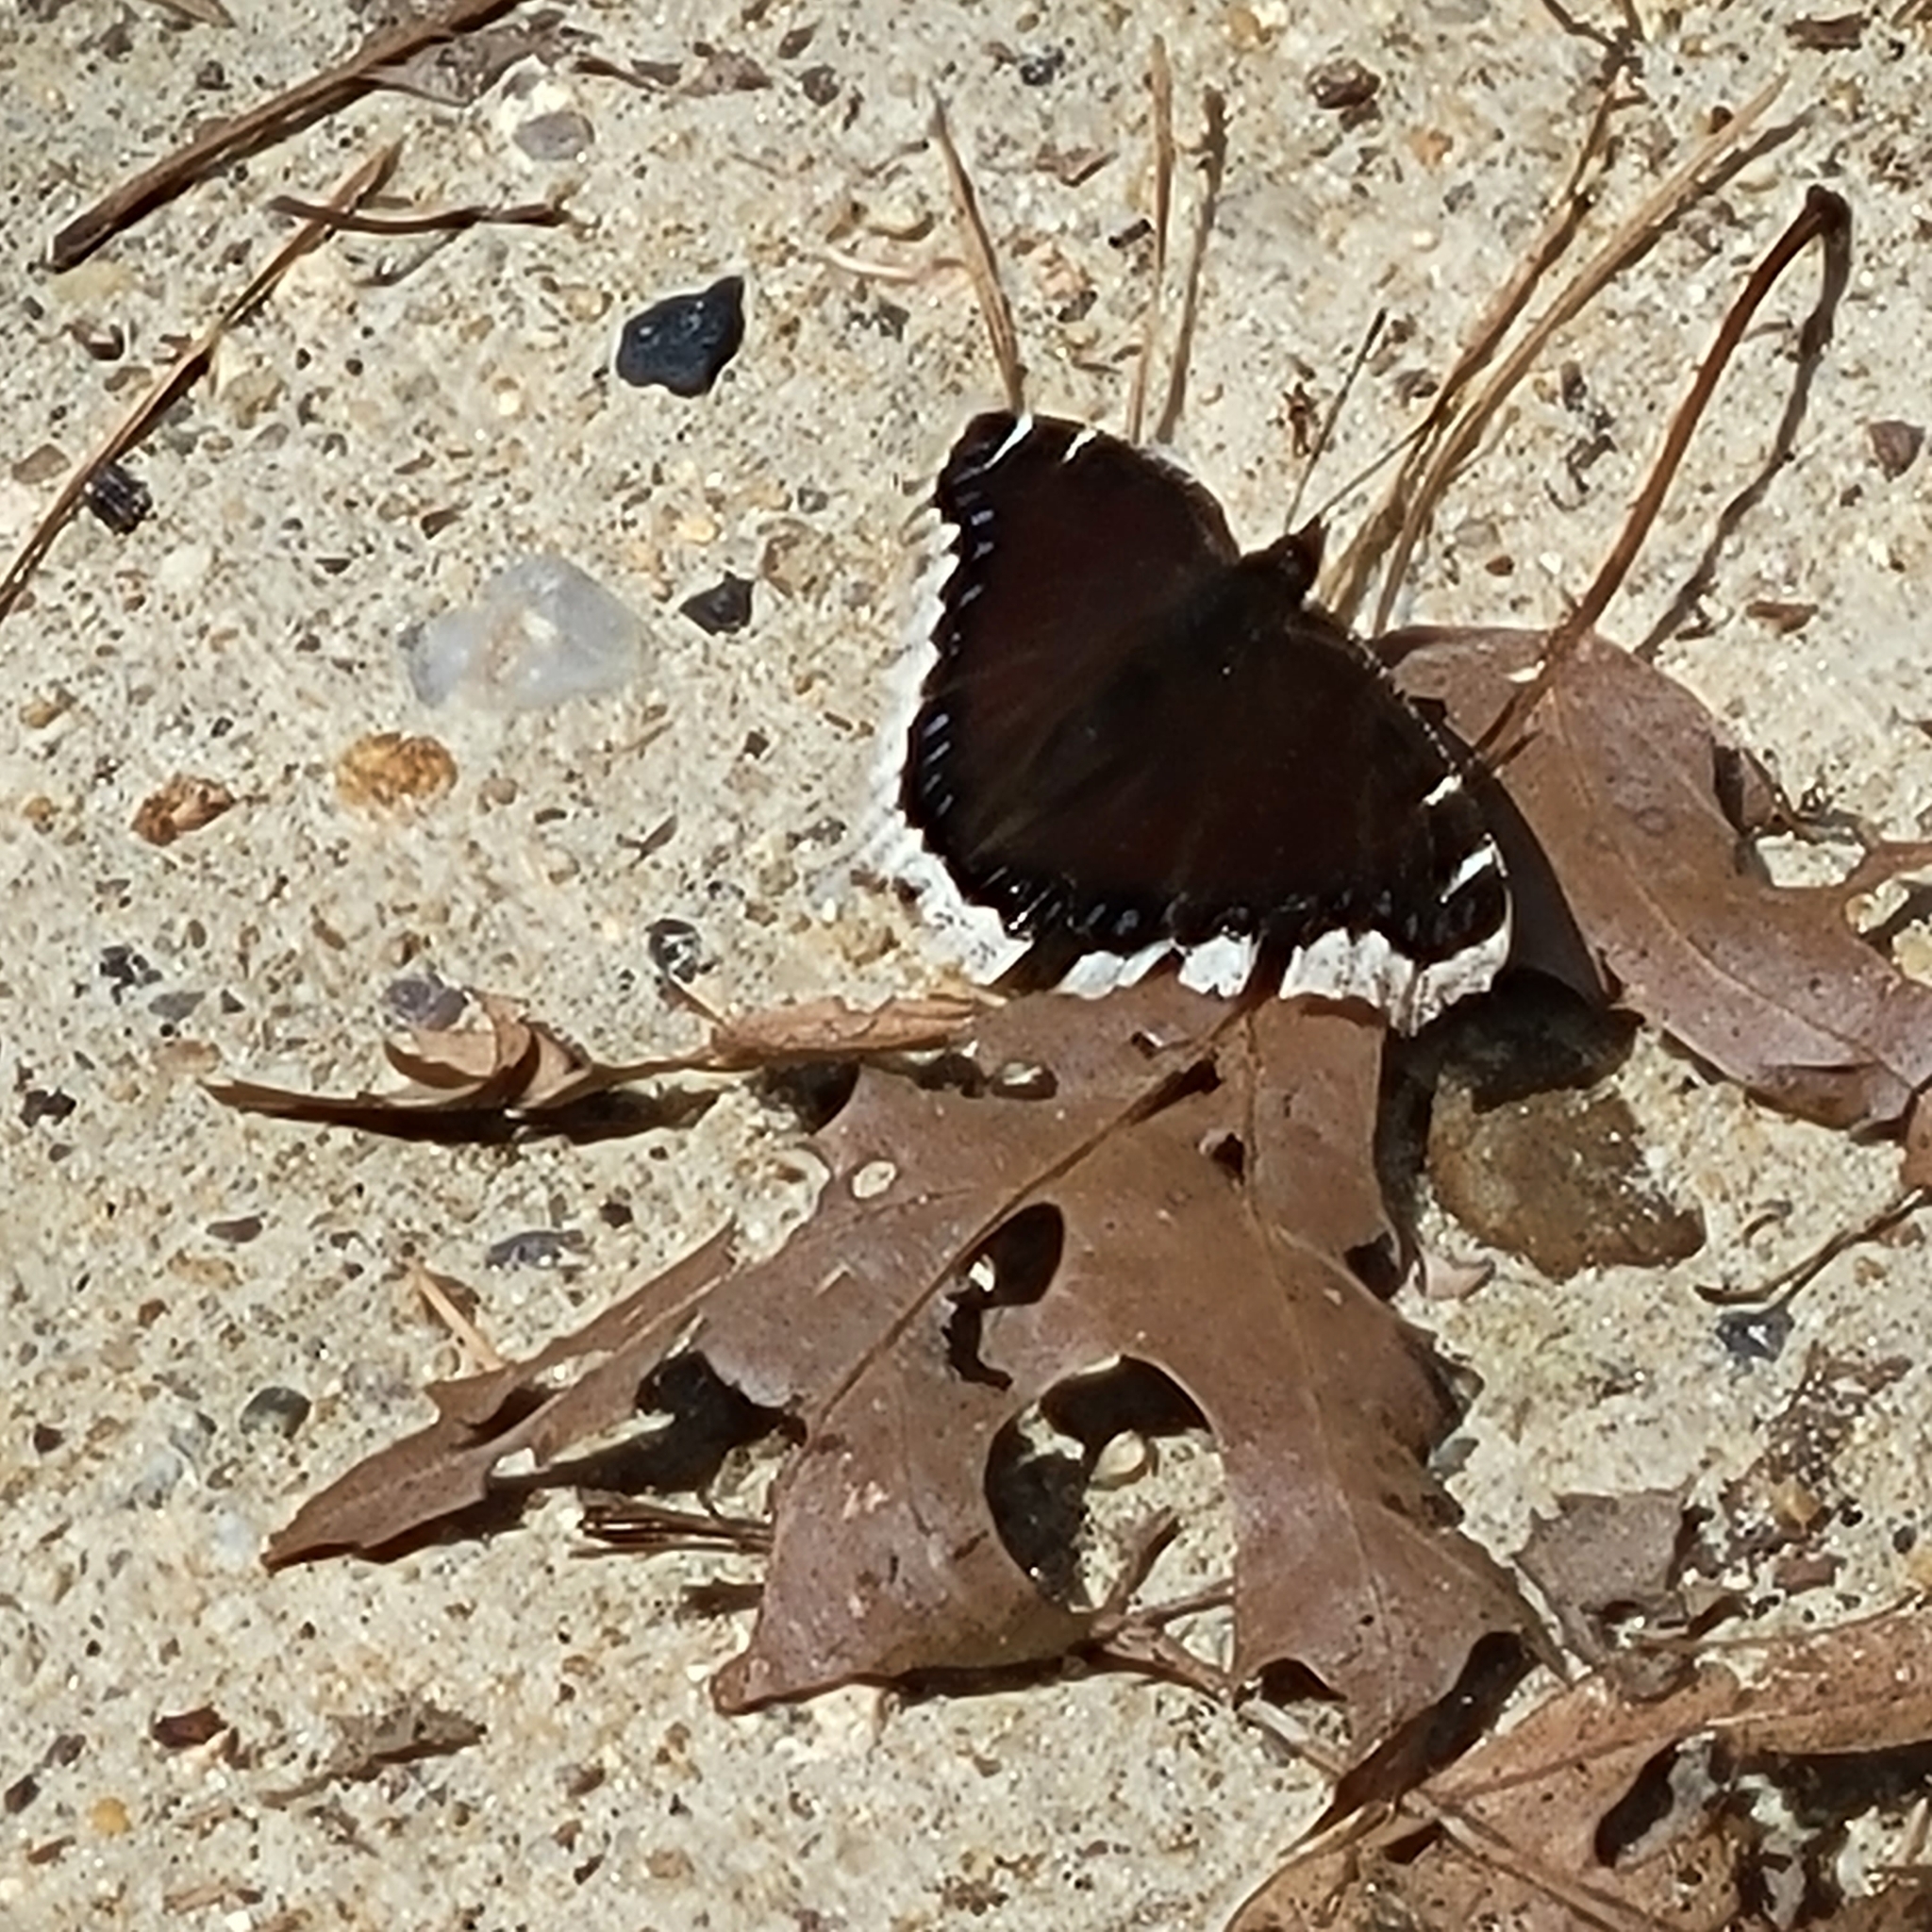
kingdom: Animalia
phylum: Arthropoda
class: Insecta
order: Lepidoptera
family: Nymphalidae
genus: Nymphalis
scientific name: Nymphalis antiopa
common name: Camberwell beauty
